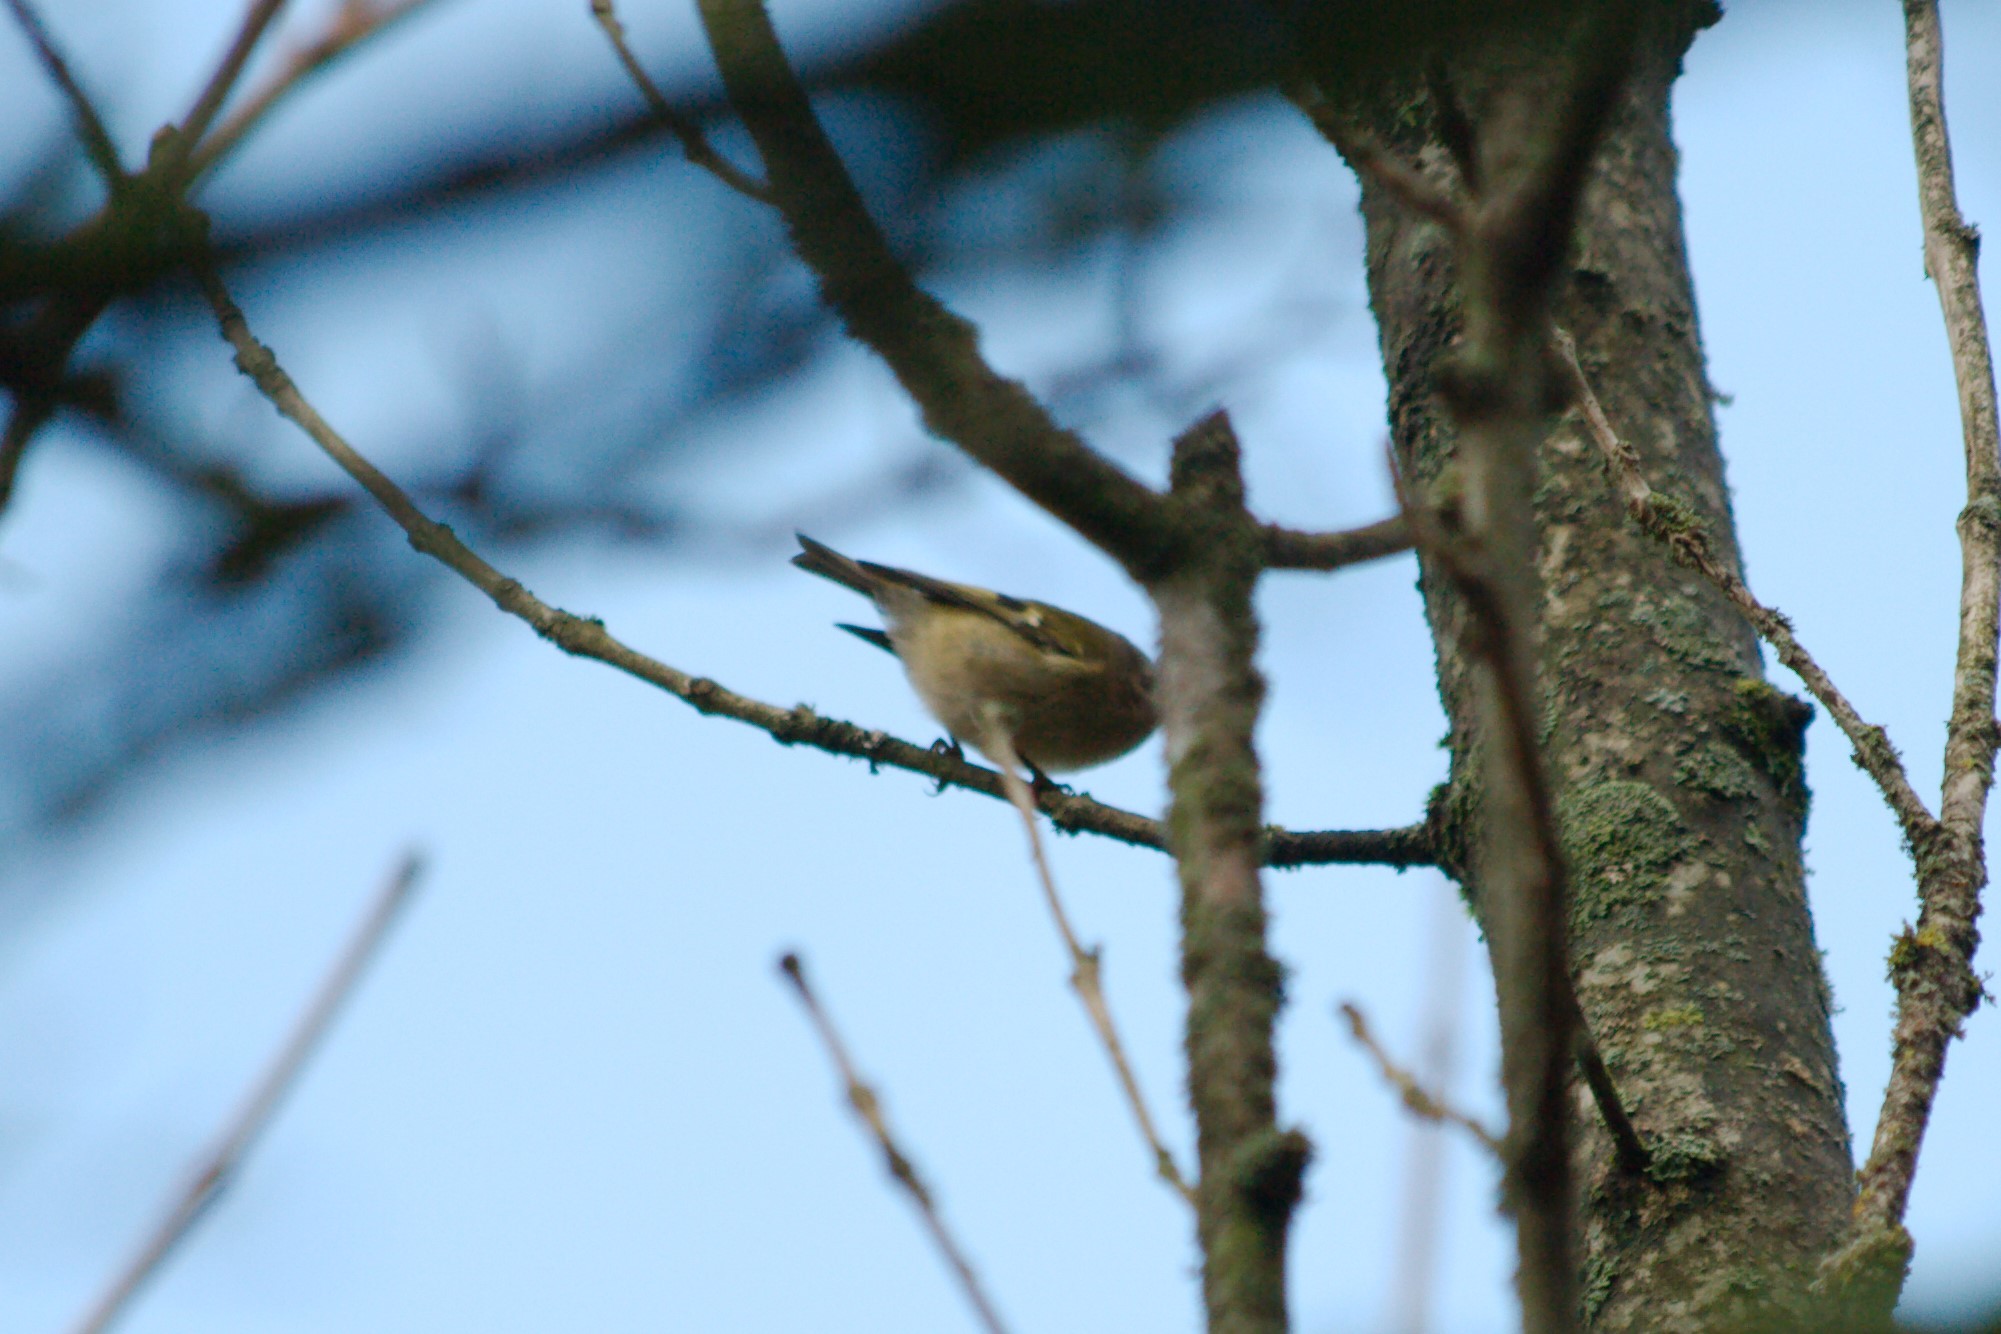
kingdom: Animalia
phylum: Chordata
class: Aves
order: Passeriformes
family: Regulidae
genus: Regulus
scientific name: Regulus regulus
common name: Goldcrest
